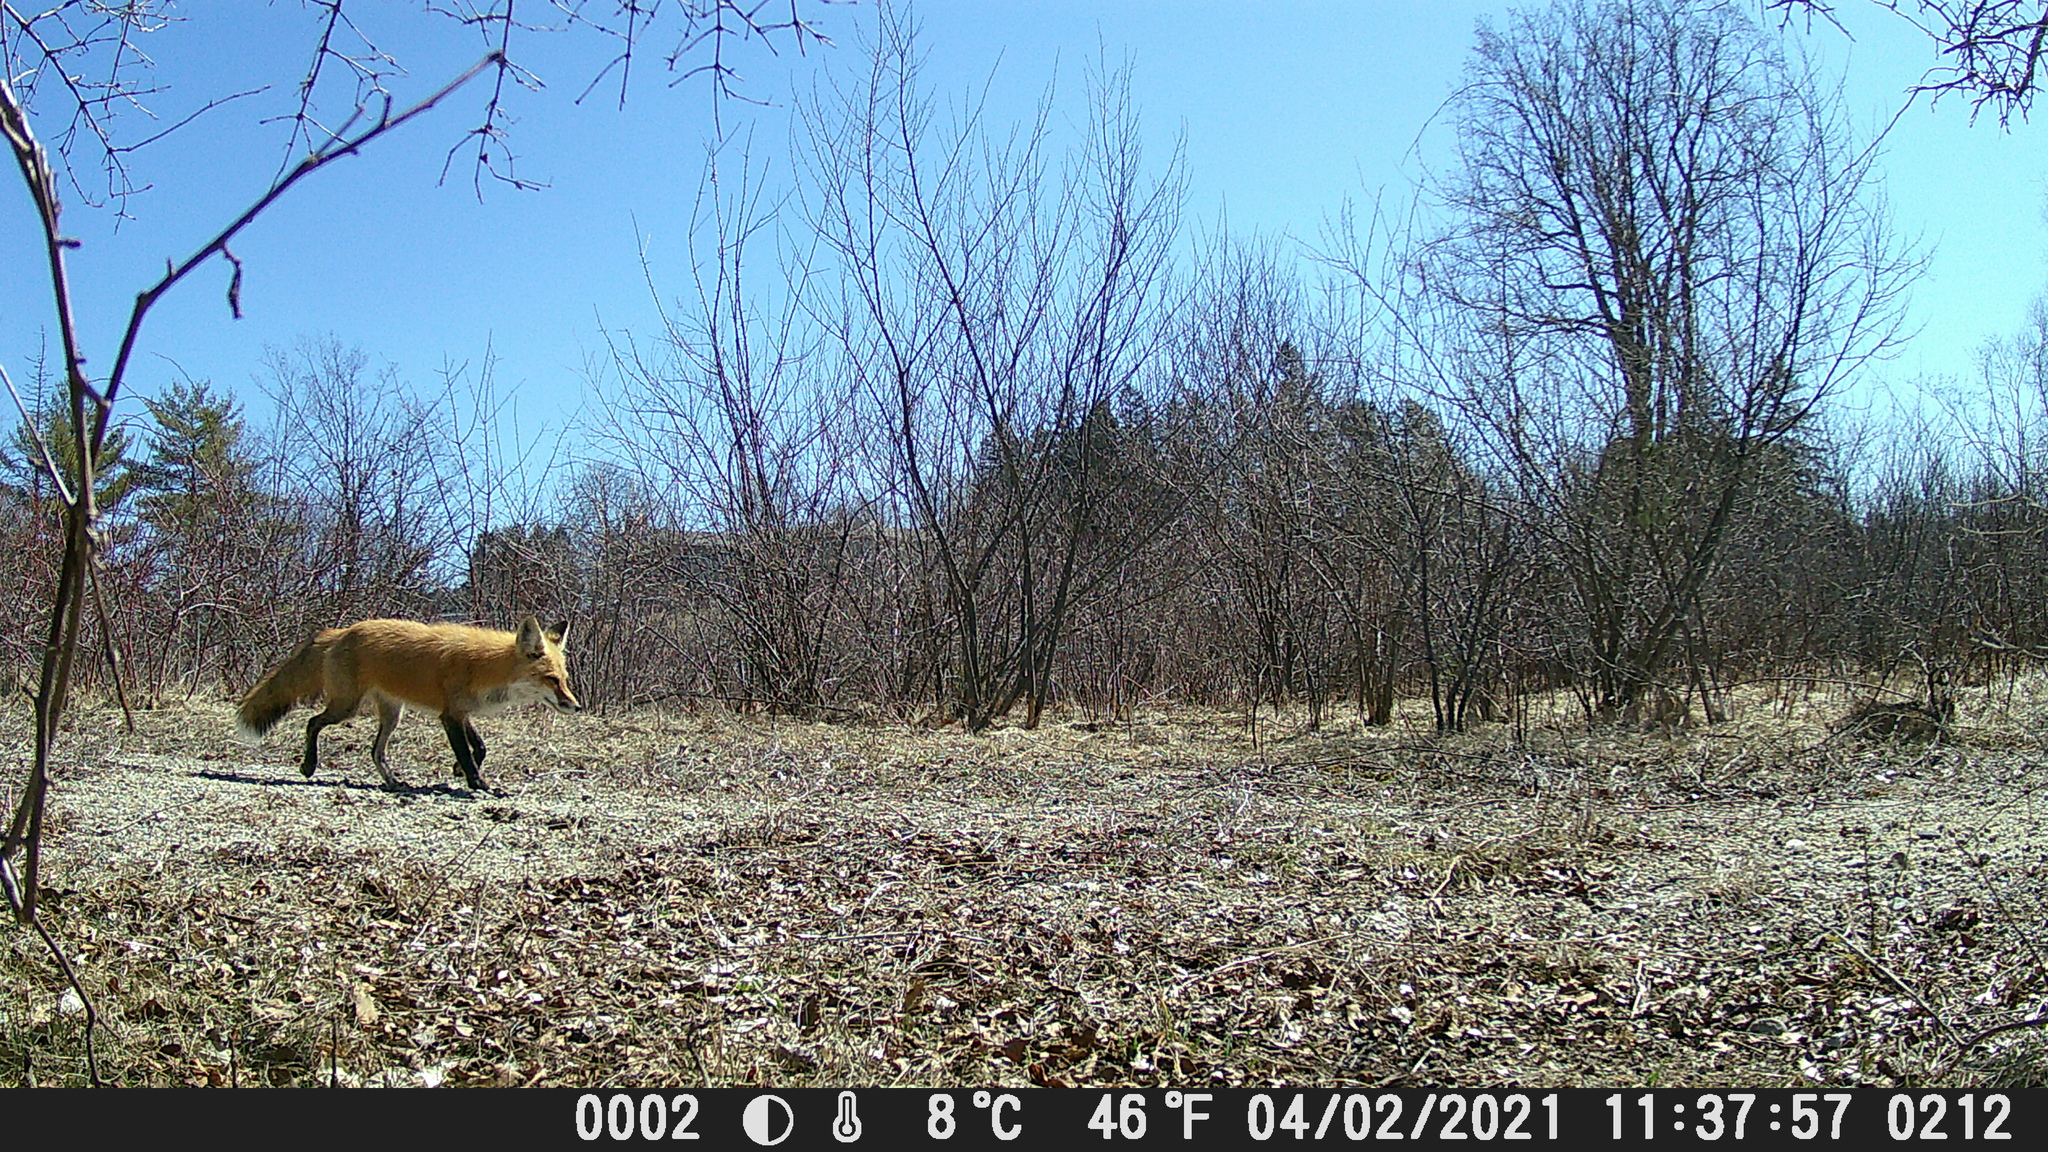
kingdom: Animalia
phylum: Chordata
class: Mammalia
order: Carnivora
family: Canidae
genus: Vulpes
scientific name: Vulpes vulpes
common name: Red fox
